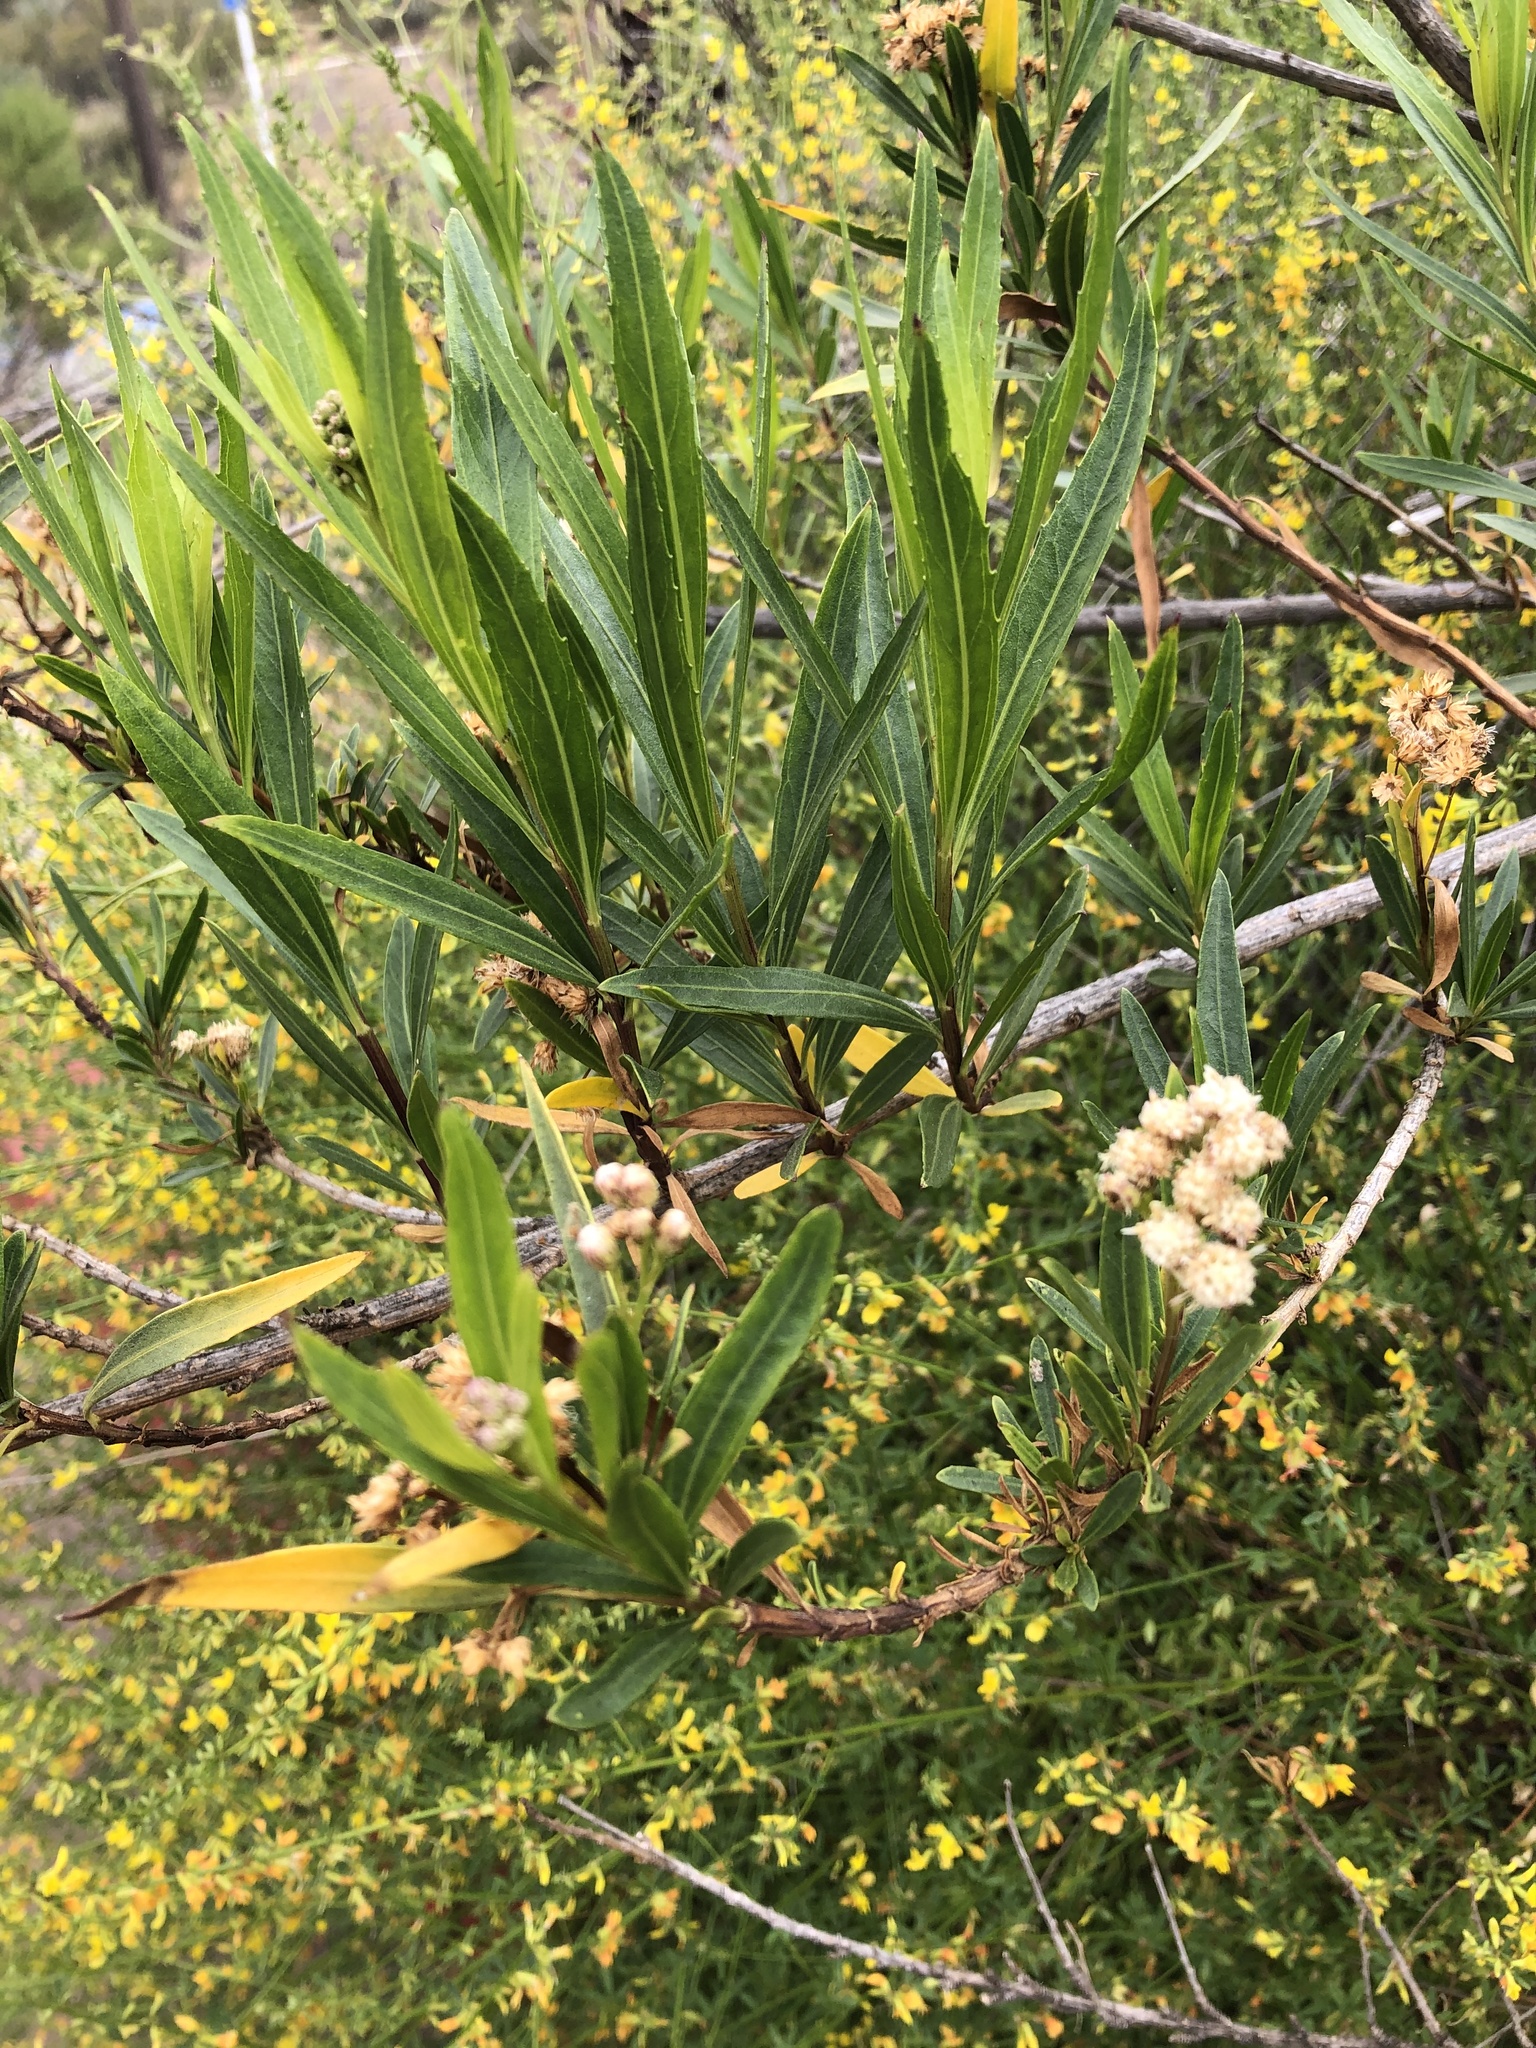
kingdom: Plantae
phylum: Tracheophyta
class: Magnoliopsida
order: Asterales
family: Asteraceae
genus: Baccharis
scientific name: Baccharis salicifolia
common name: Sticky baccharis
